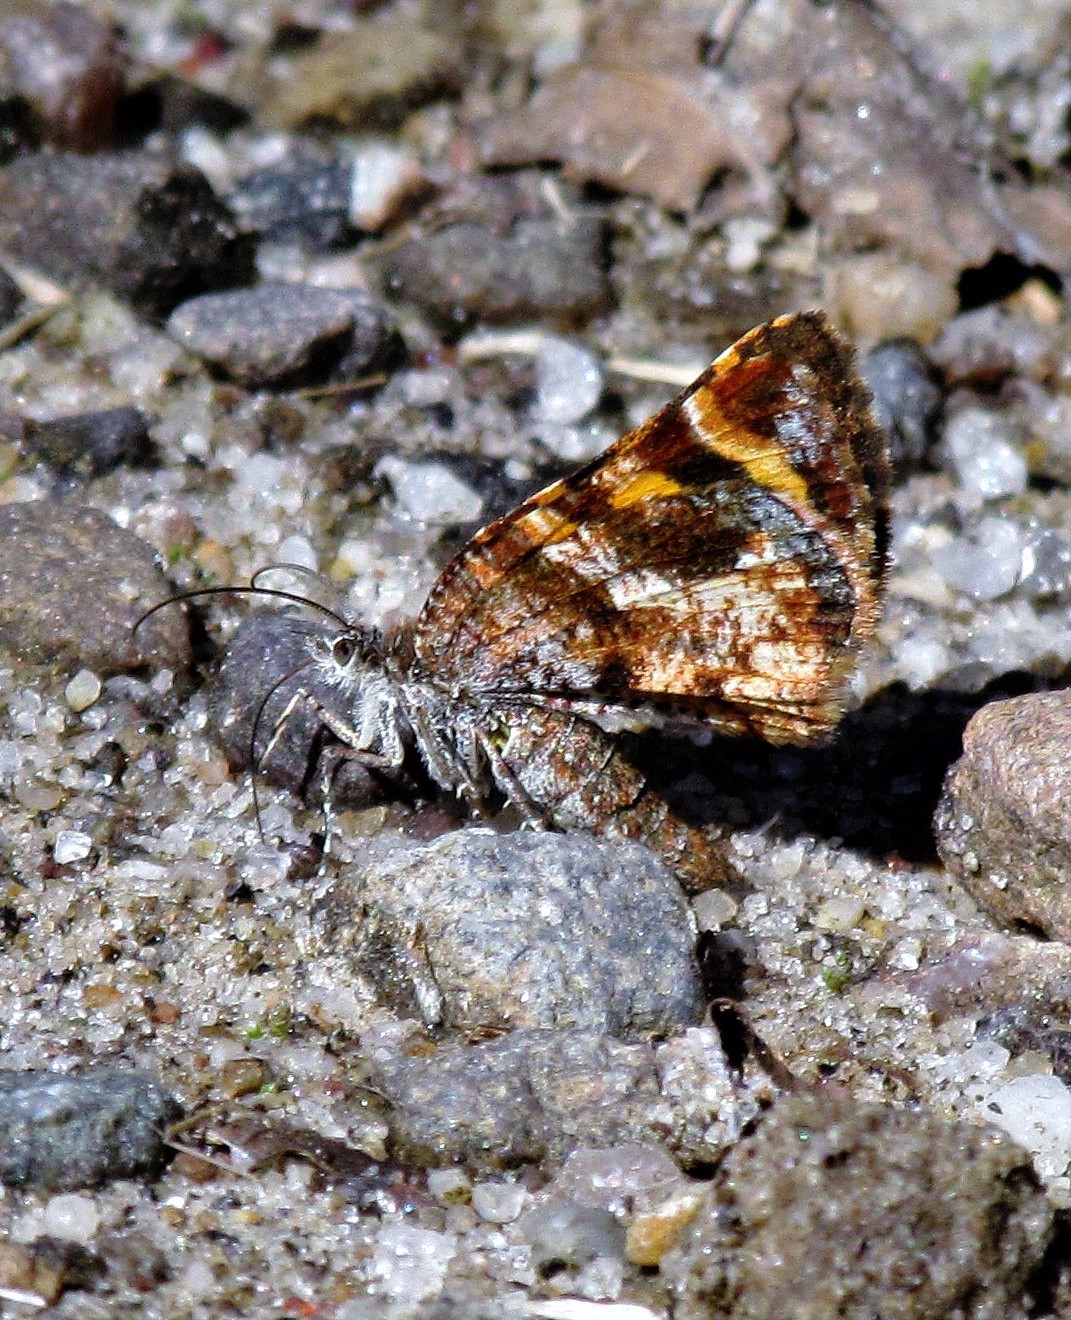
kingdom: Animalia
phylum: Arthropoda
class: Insecta
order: Lepidoptera
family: Geometridae
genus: Heterusia
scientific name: Heterusia cruciata
